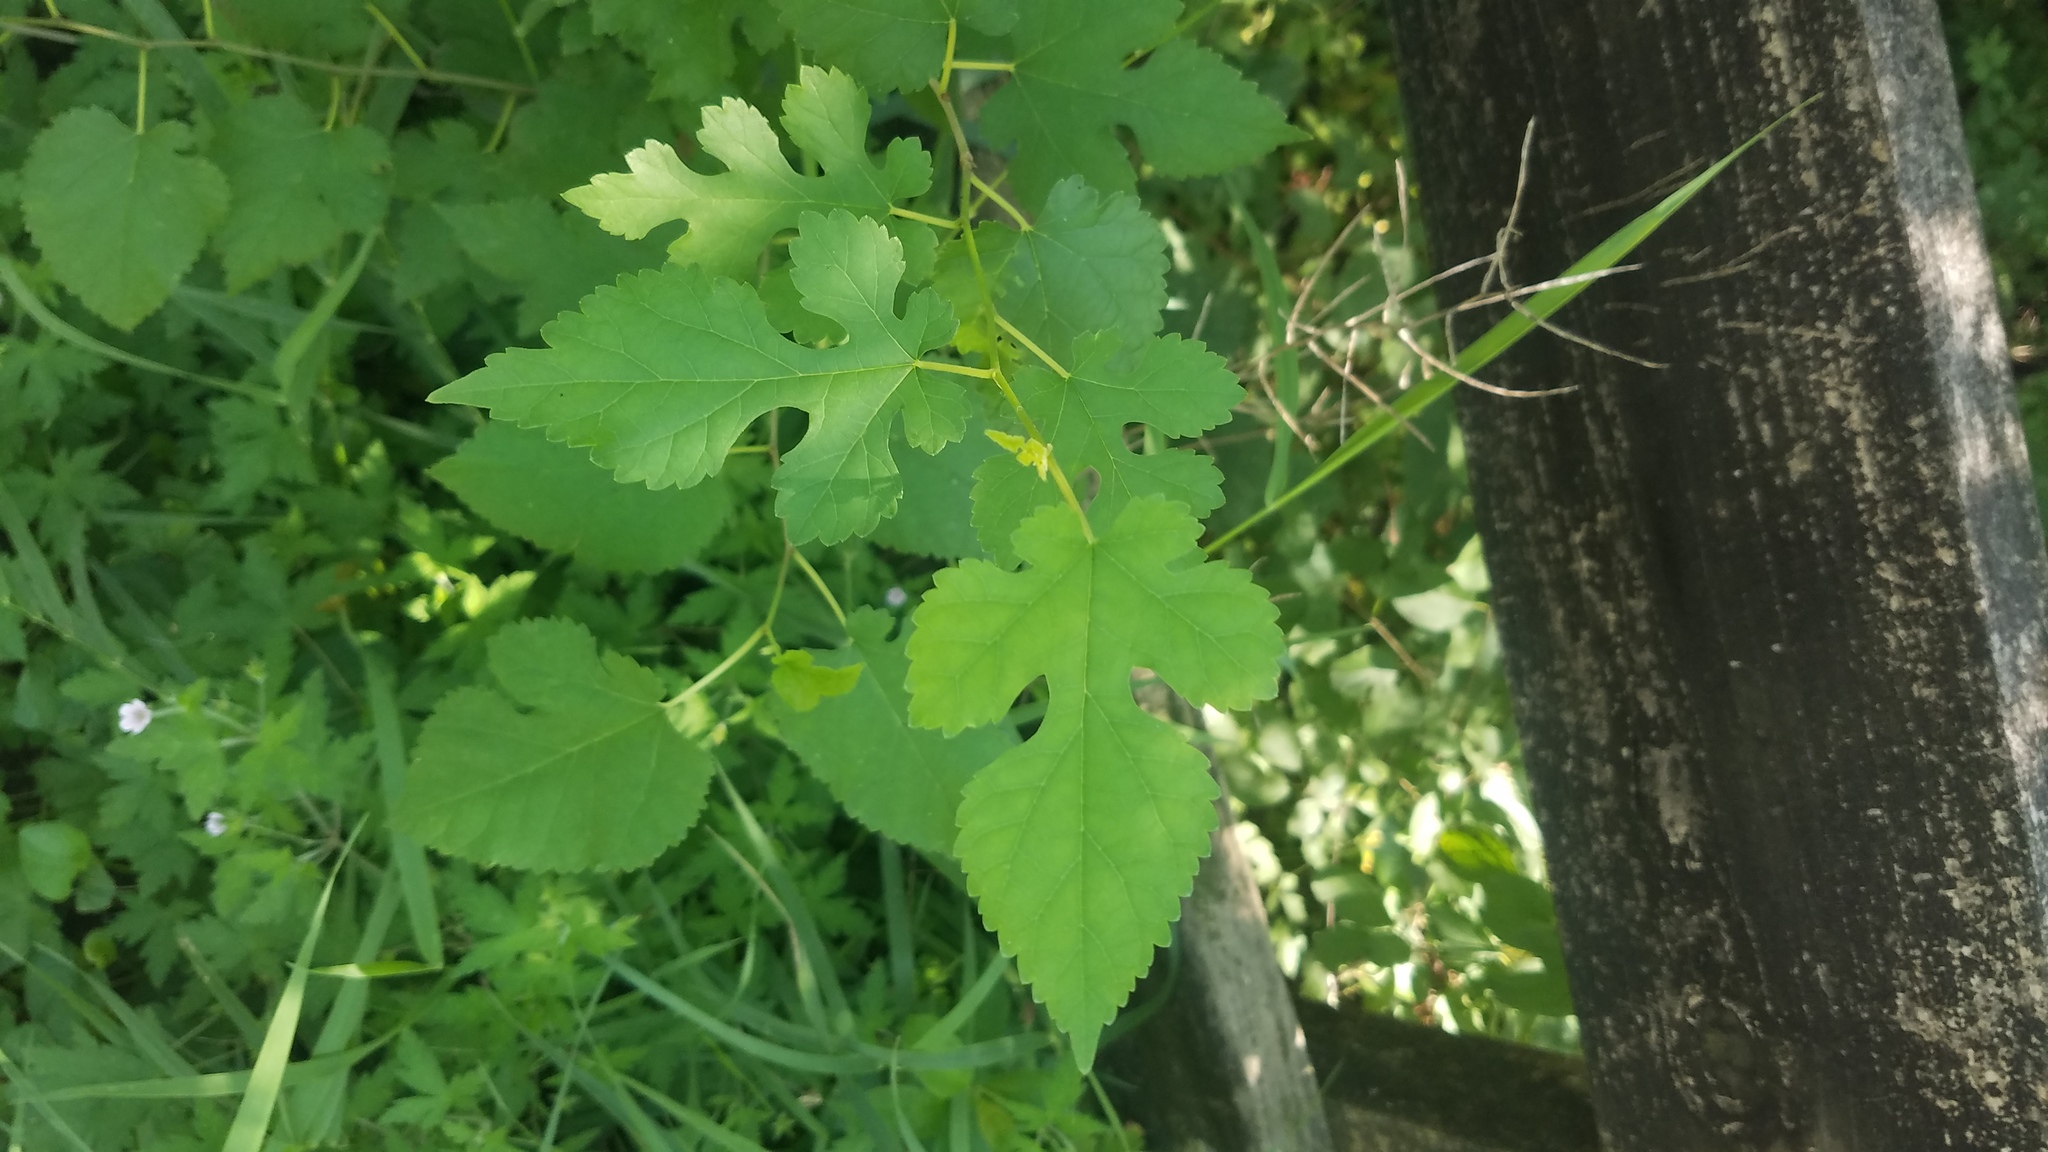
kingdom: Plantae
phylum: Tracheophyta
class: Magnoliopsida
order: Rosales
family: Moraceae
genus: Morus
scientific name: Morus alba
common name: White mulberry
